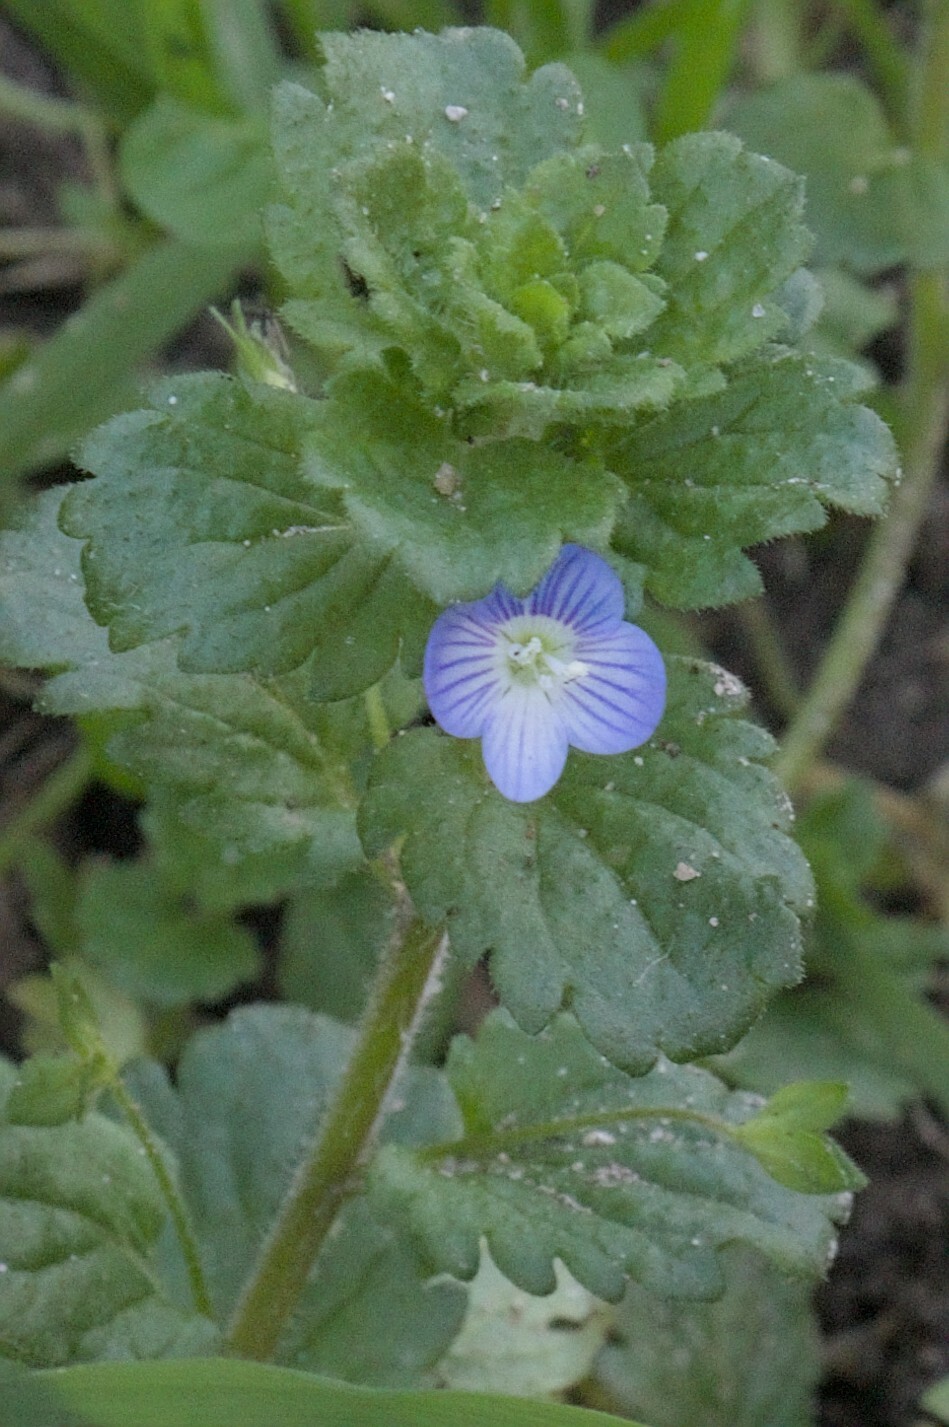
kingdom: Plantae
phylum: Tracheophyta
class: Magnoliopsida
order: Lamiales
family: Plantaginaceae
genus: Veronica
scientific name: Veronica persica
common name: Common field-speedwell
